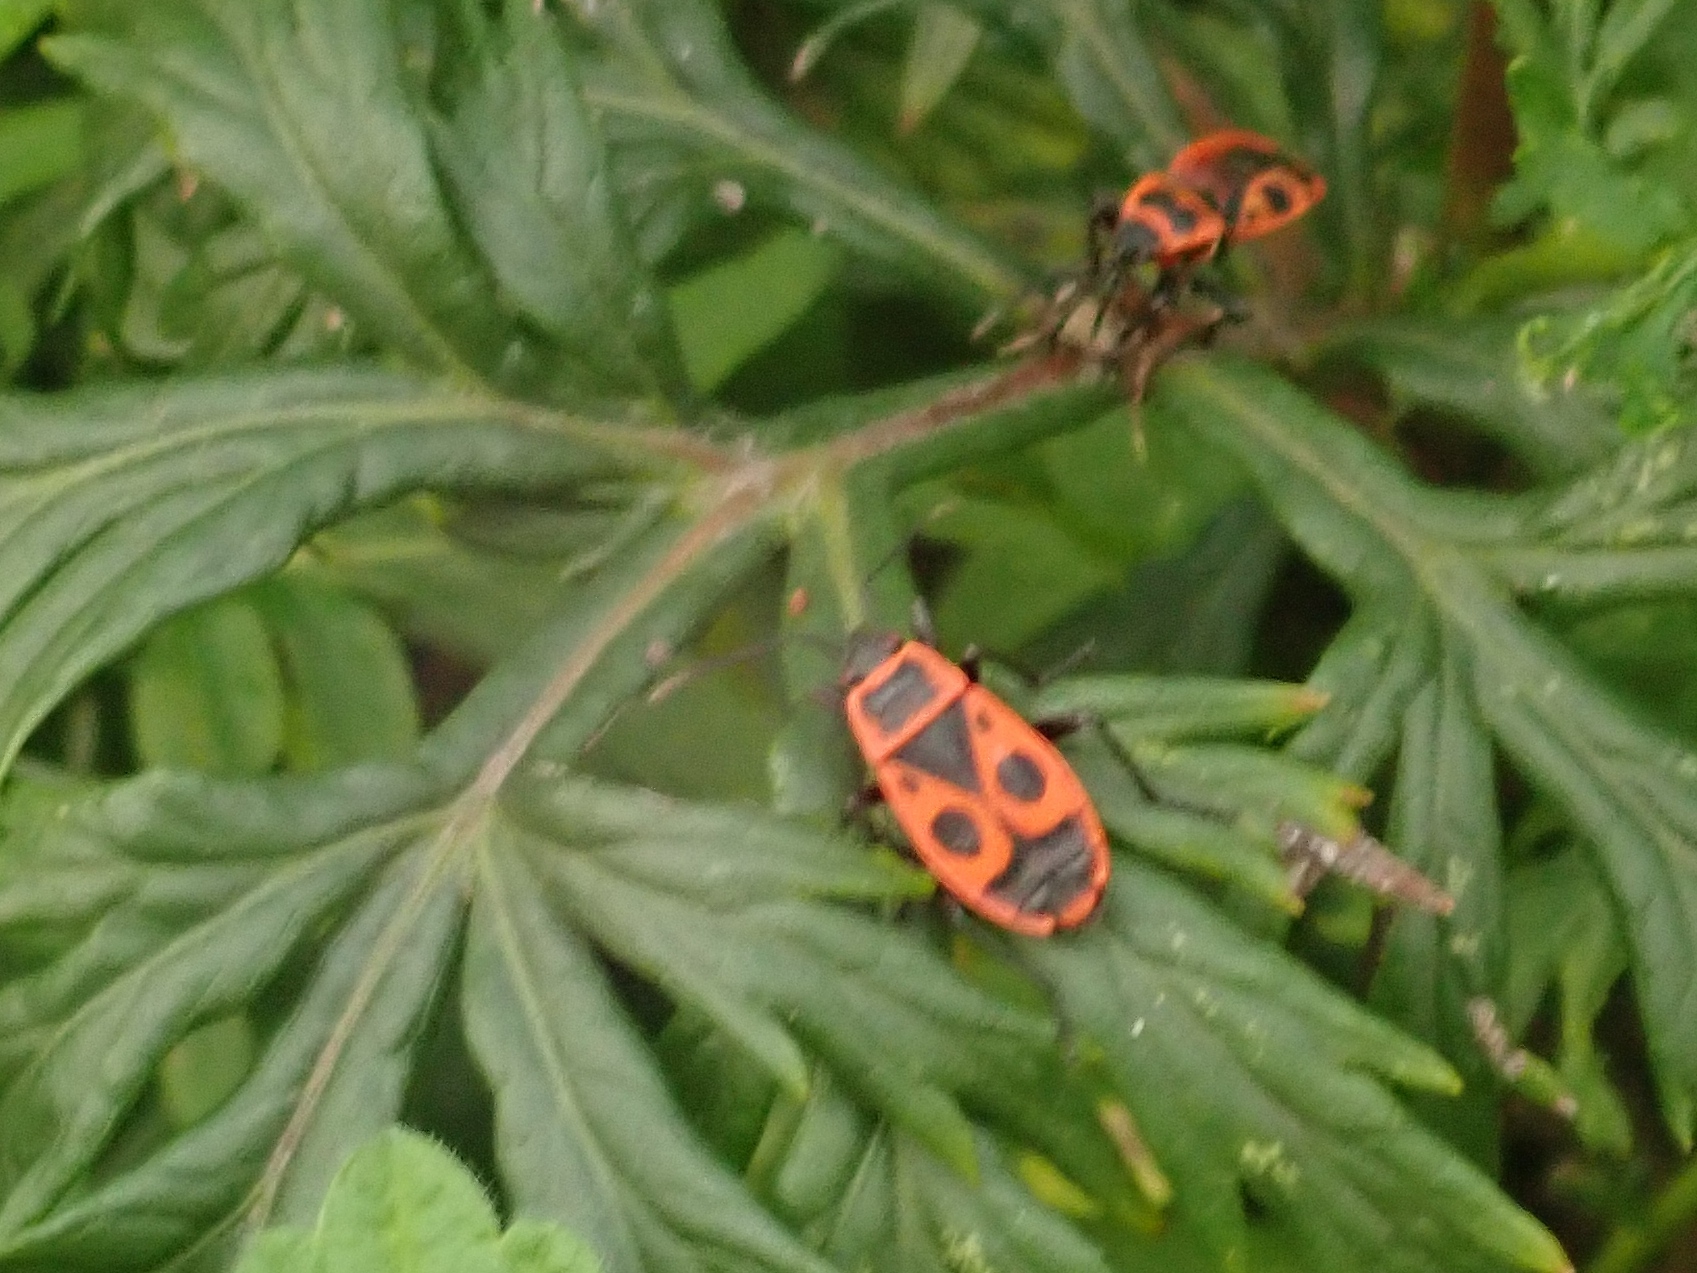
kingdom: Animalia
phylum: Arthropoda
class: Insecta
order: Hemiptera
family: Pyrrhocoridae
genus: Pyrrhocoris
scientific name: Pyrrhocoris apterus
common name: Firebug
